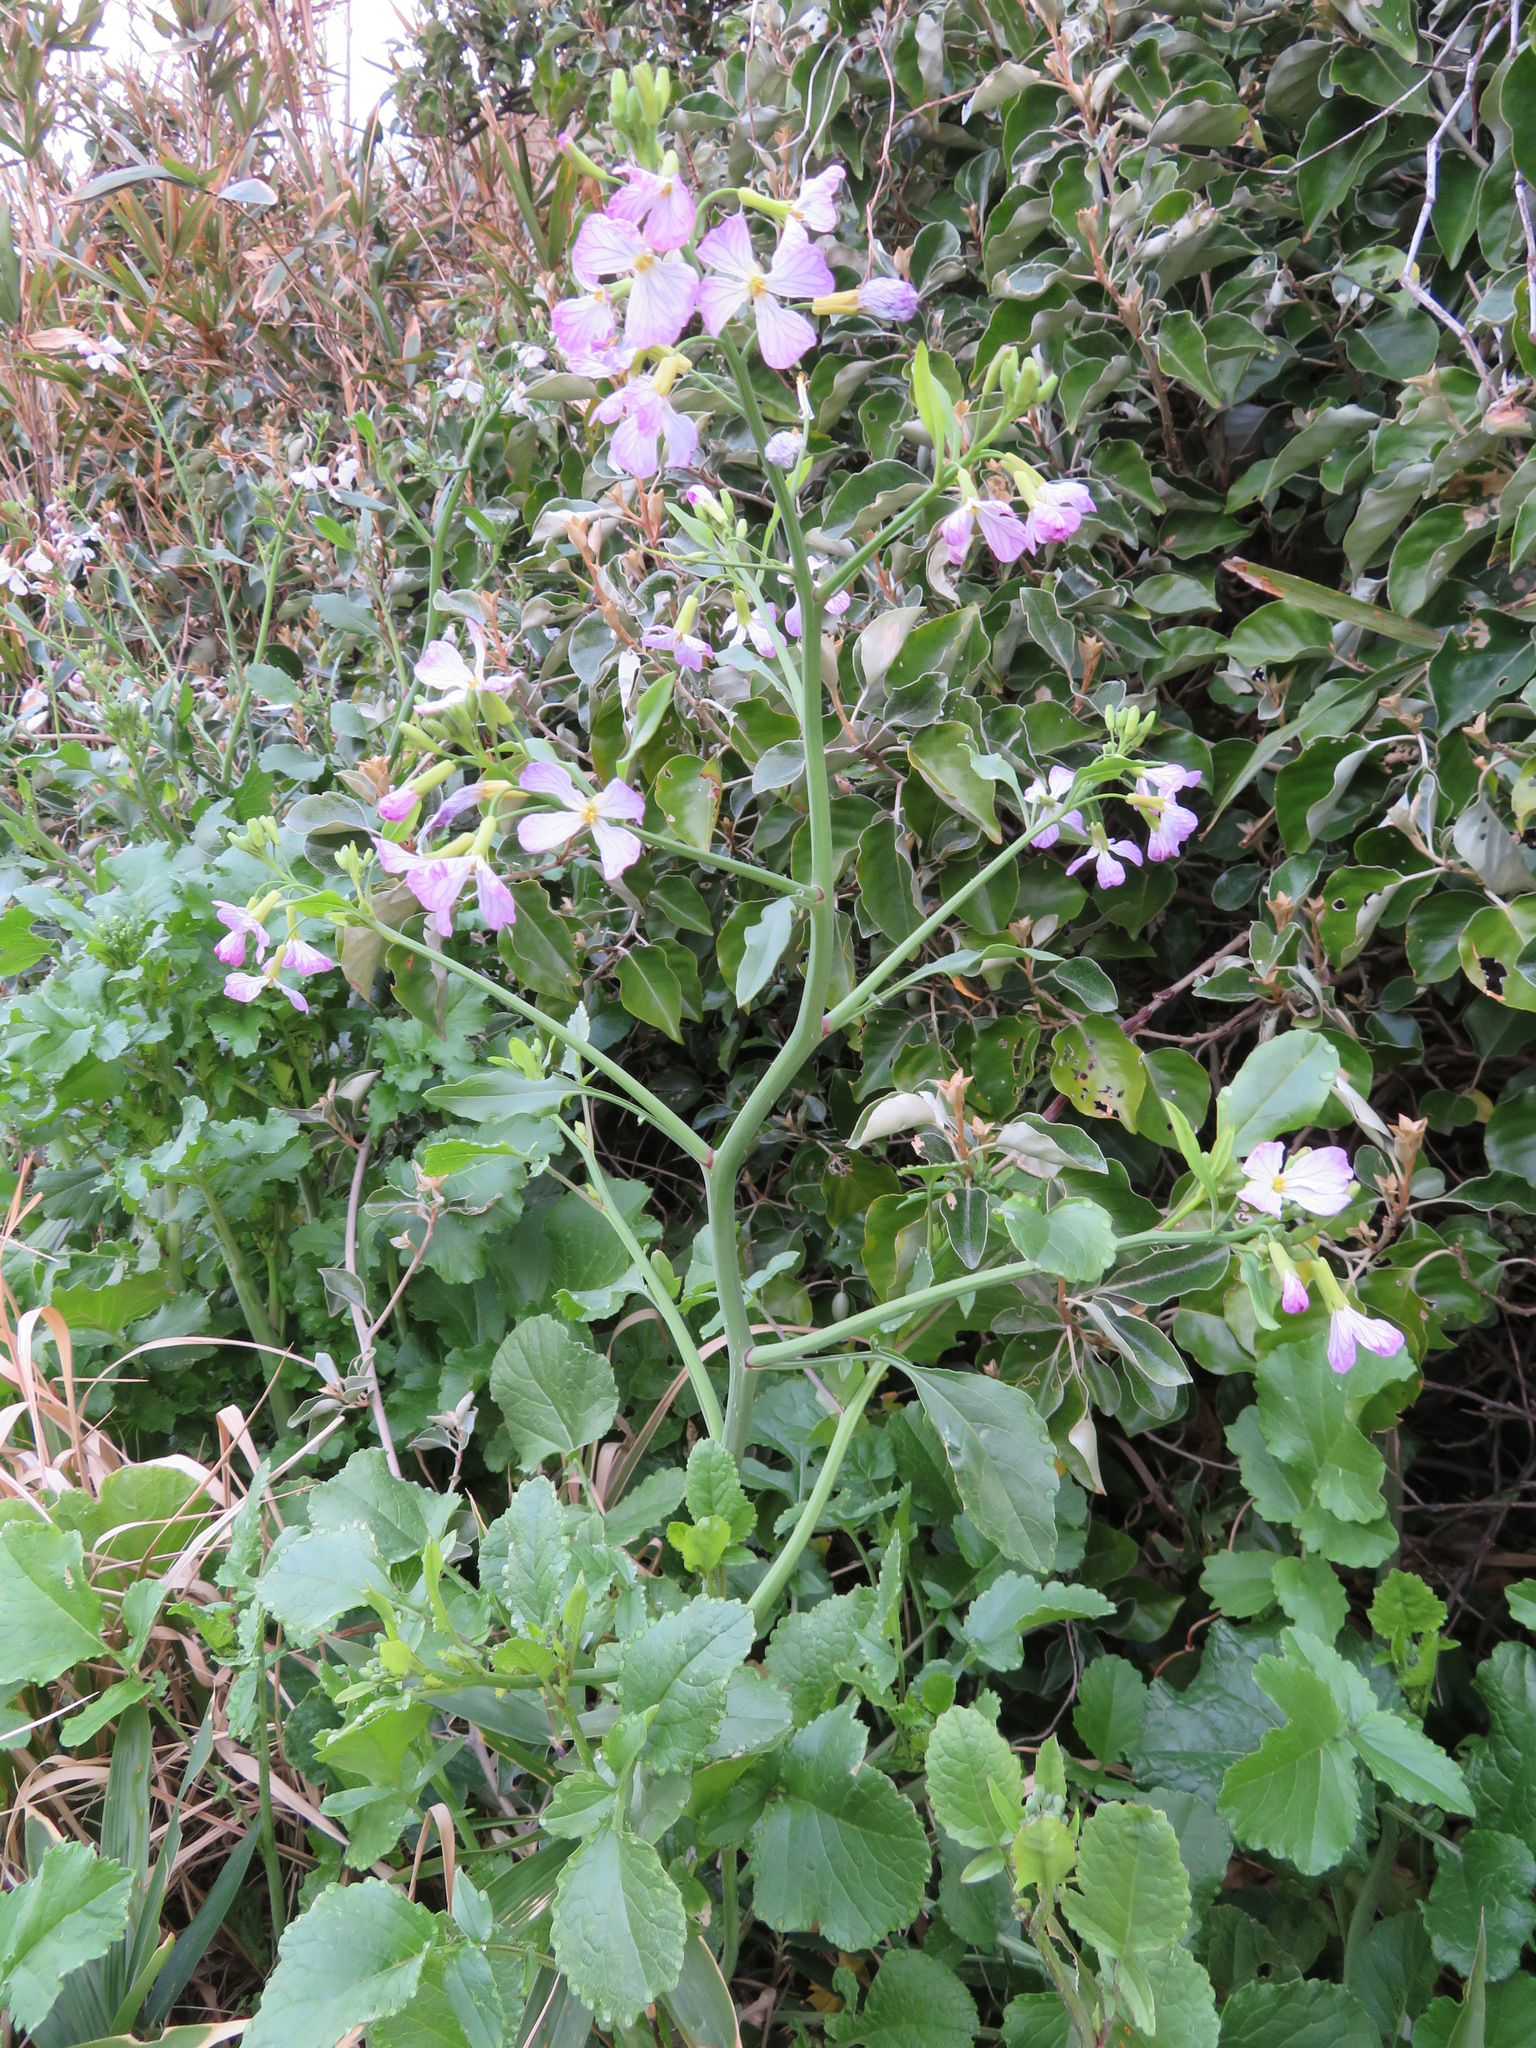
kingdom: Plantae
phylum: Tracheophyta
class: Magnoliopsida
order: Brassicales
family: Brassicaceae
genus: Raphanus
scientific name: Raphanus sativus
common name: Cultivated radish
